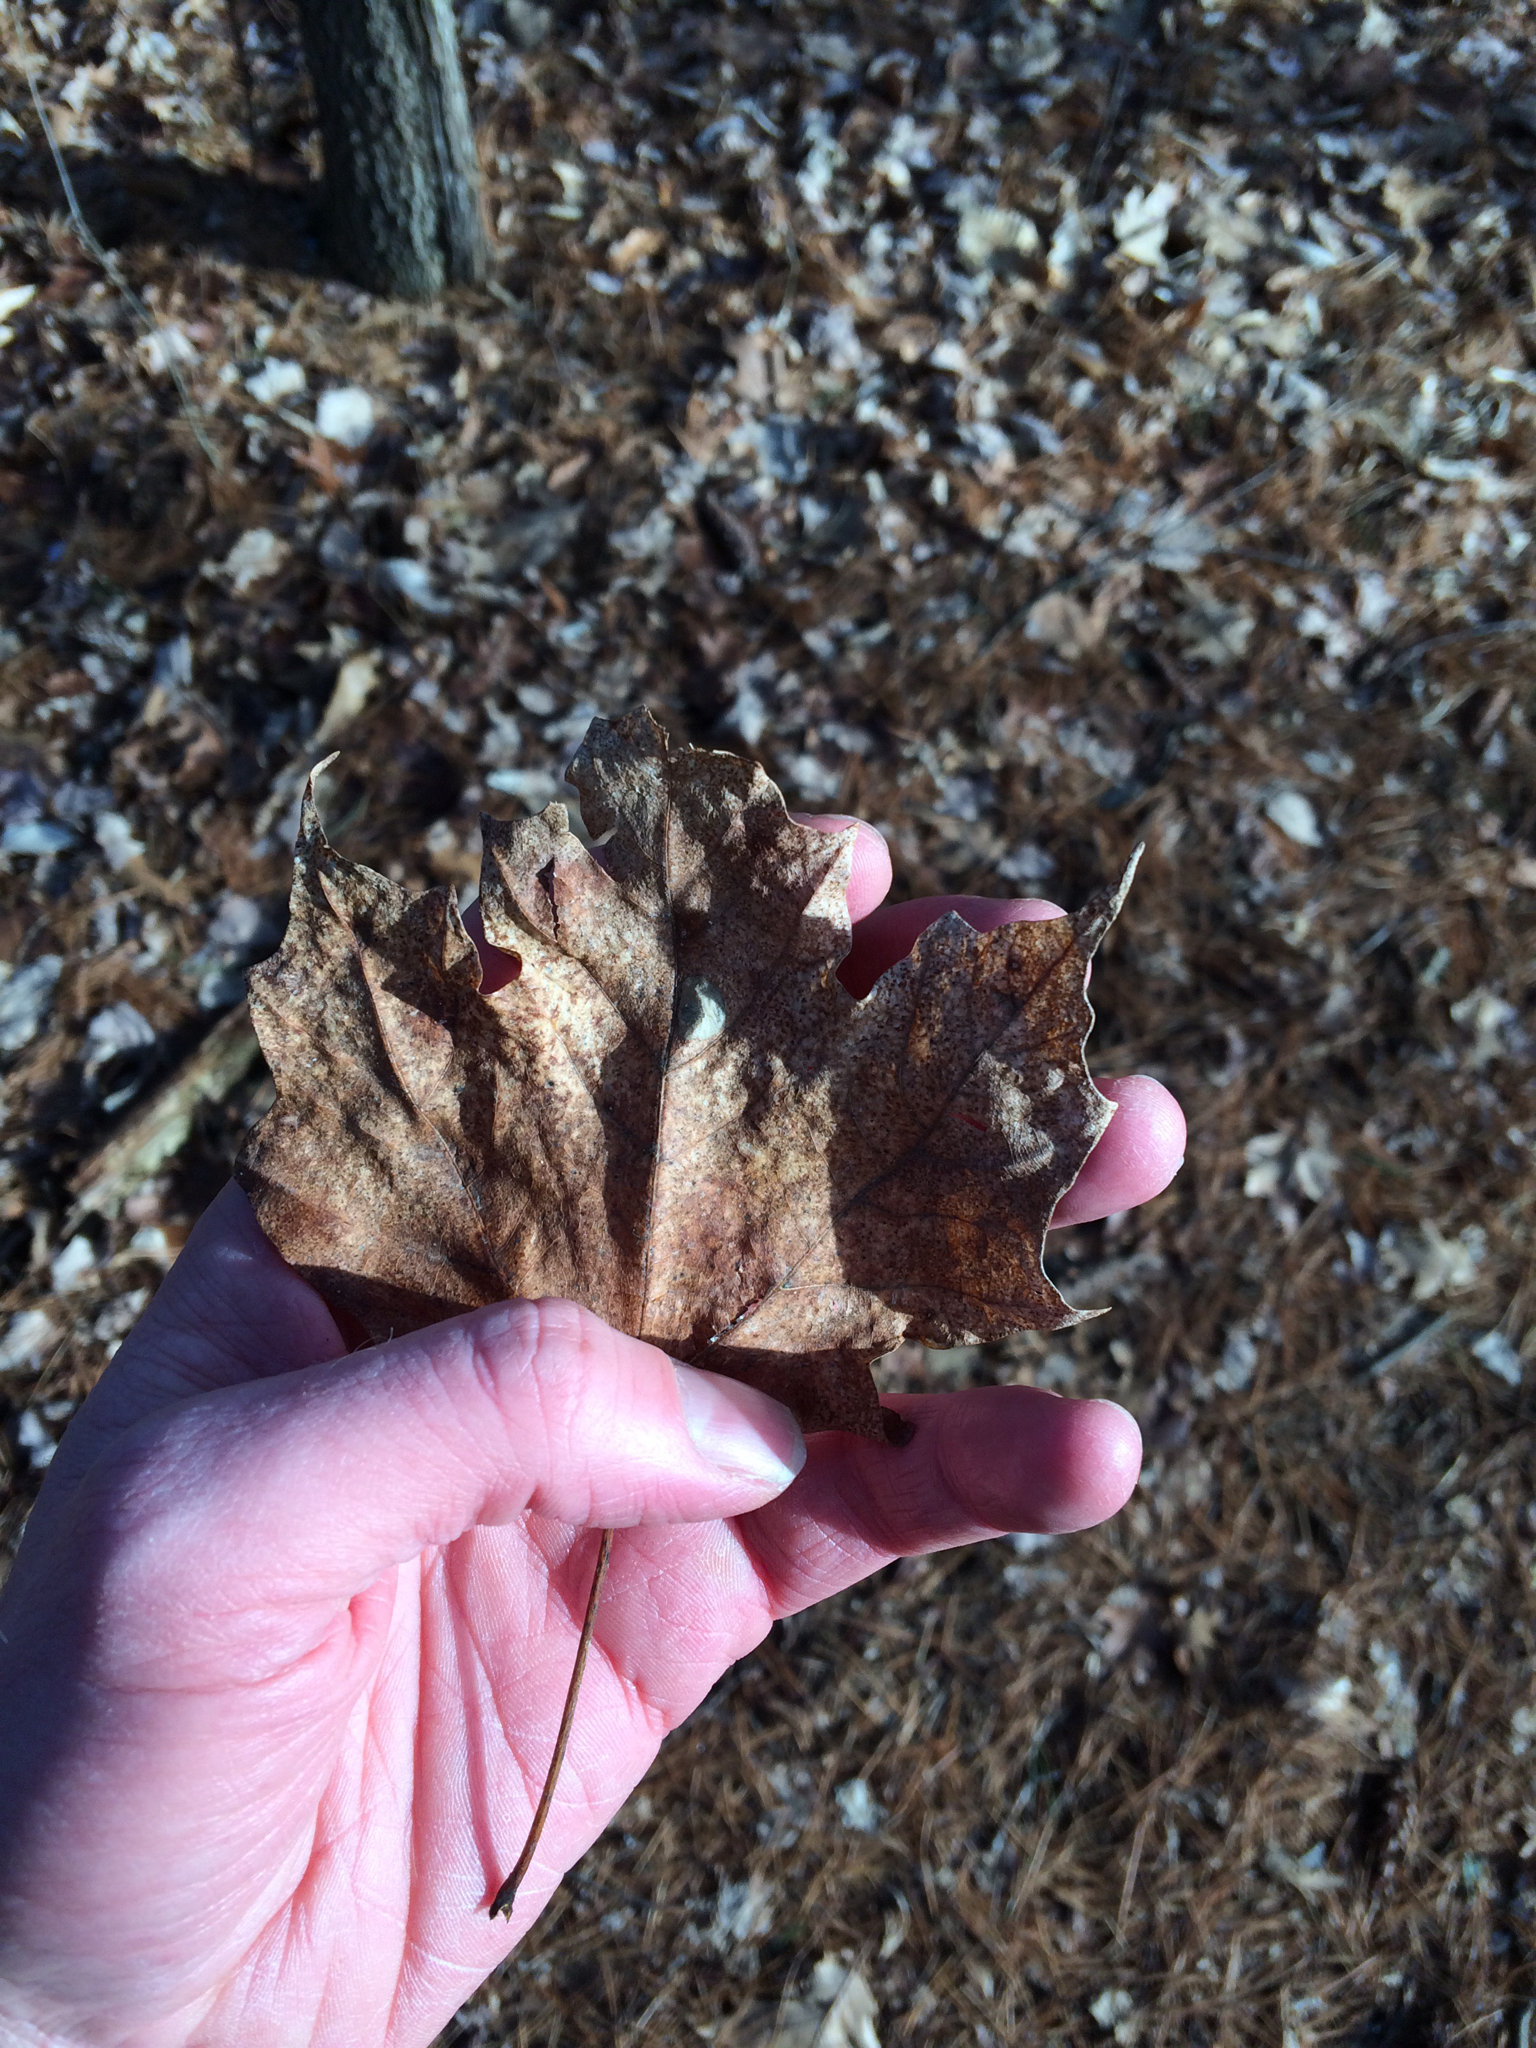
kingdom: Plantae
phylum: Tracheophyta
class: Magnoliopsida
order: Sapindales
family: Sapindaceae
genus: Acer
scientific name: Acer saccharum
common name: Sugar maple
